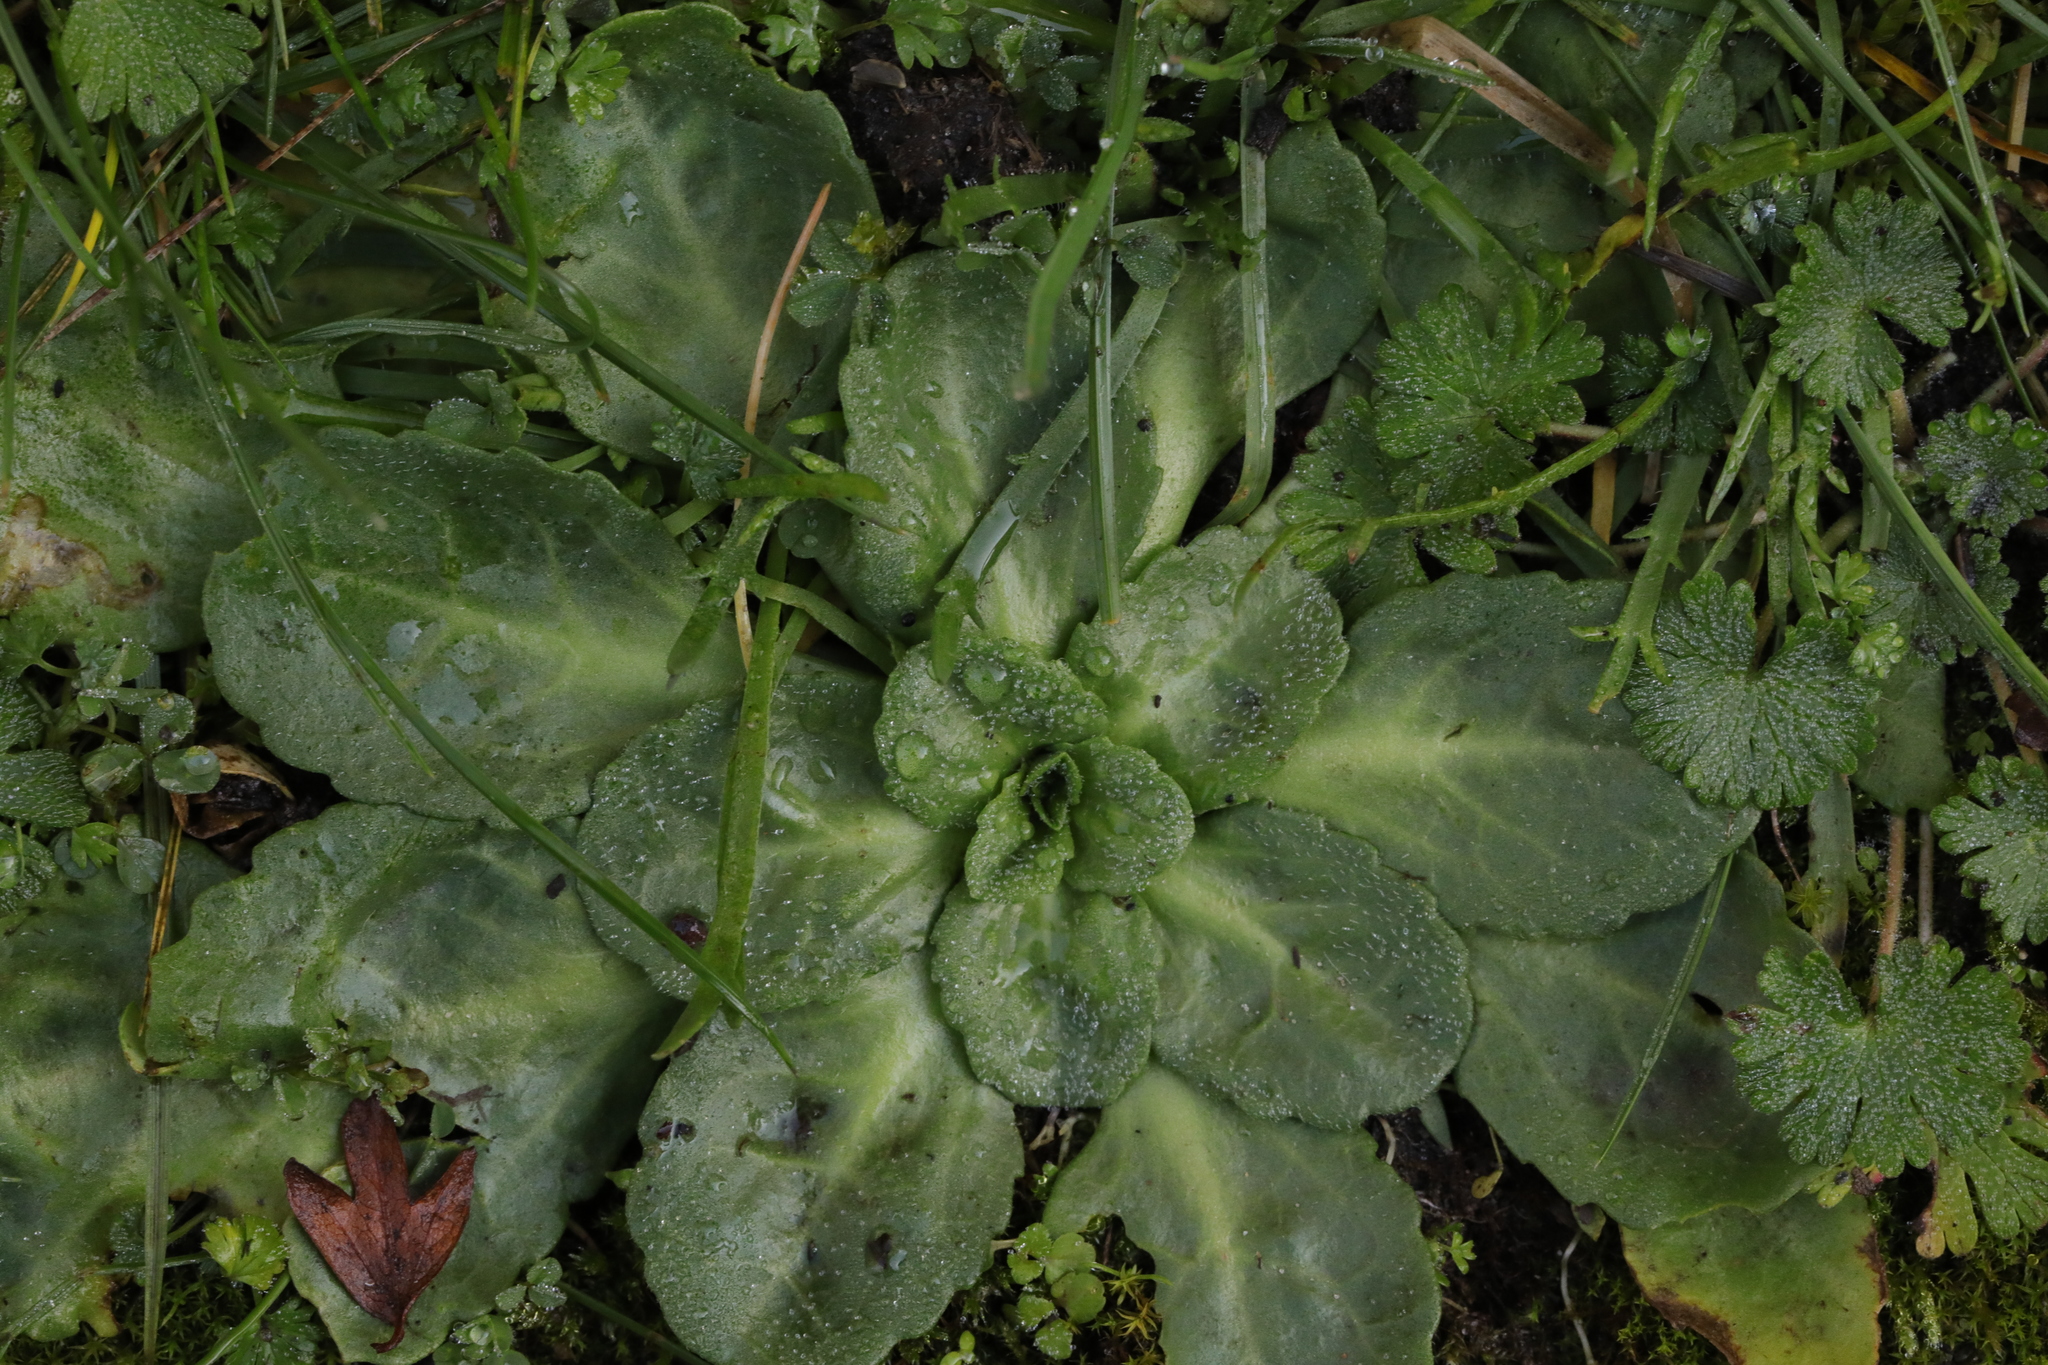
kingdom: Plantae
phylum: Tracheophyta
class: Magnoliopsida
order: Asterales
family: Asteraceae
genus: Bellis
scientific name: Bellis perennis
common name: Lawndaisy
